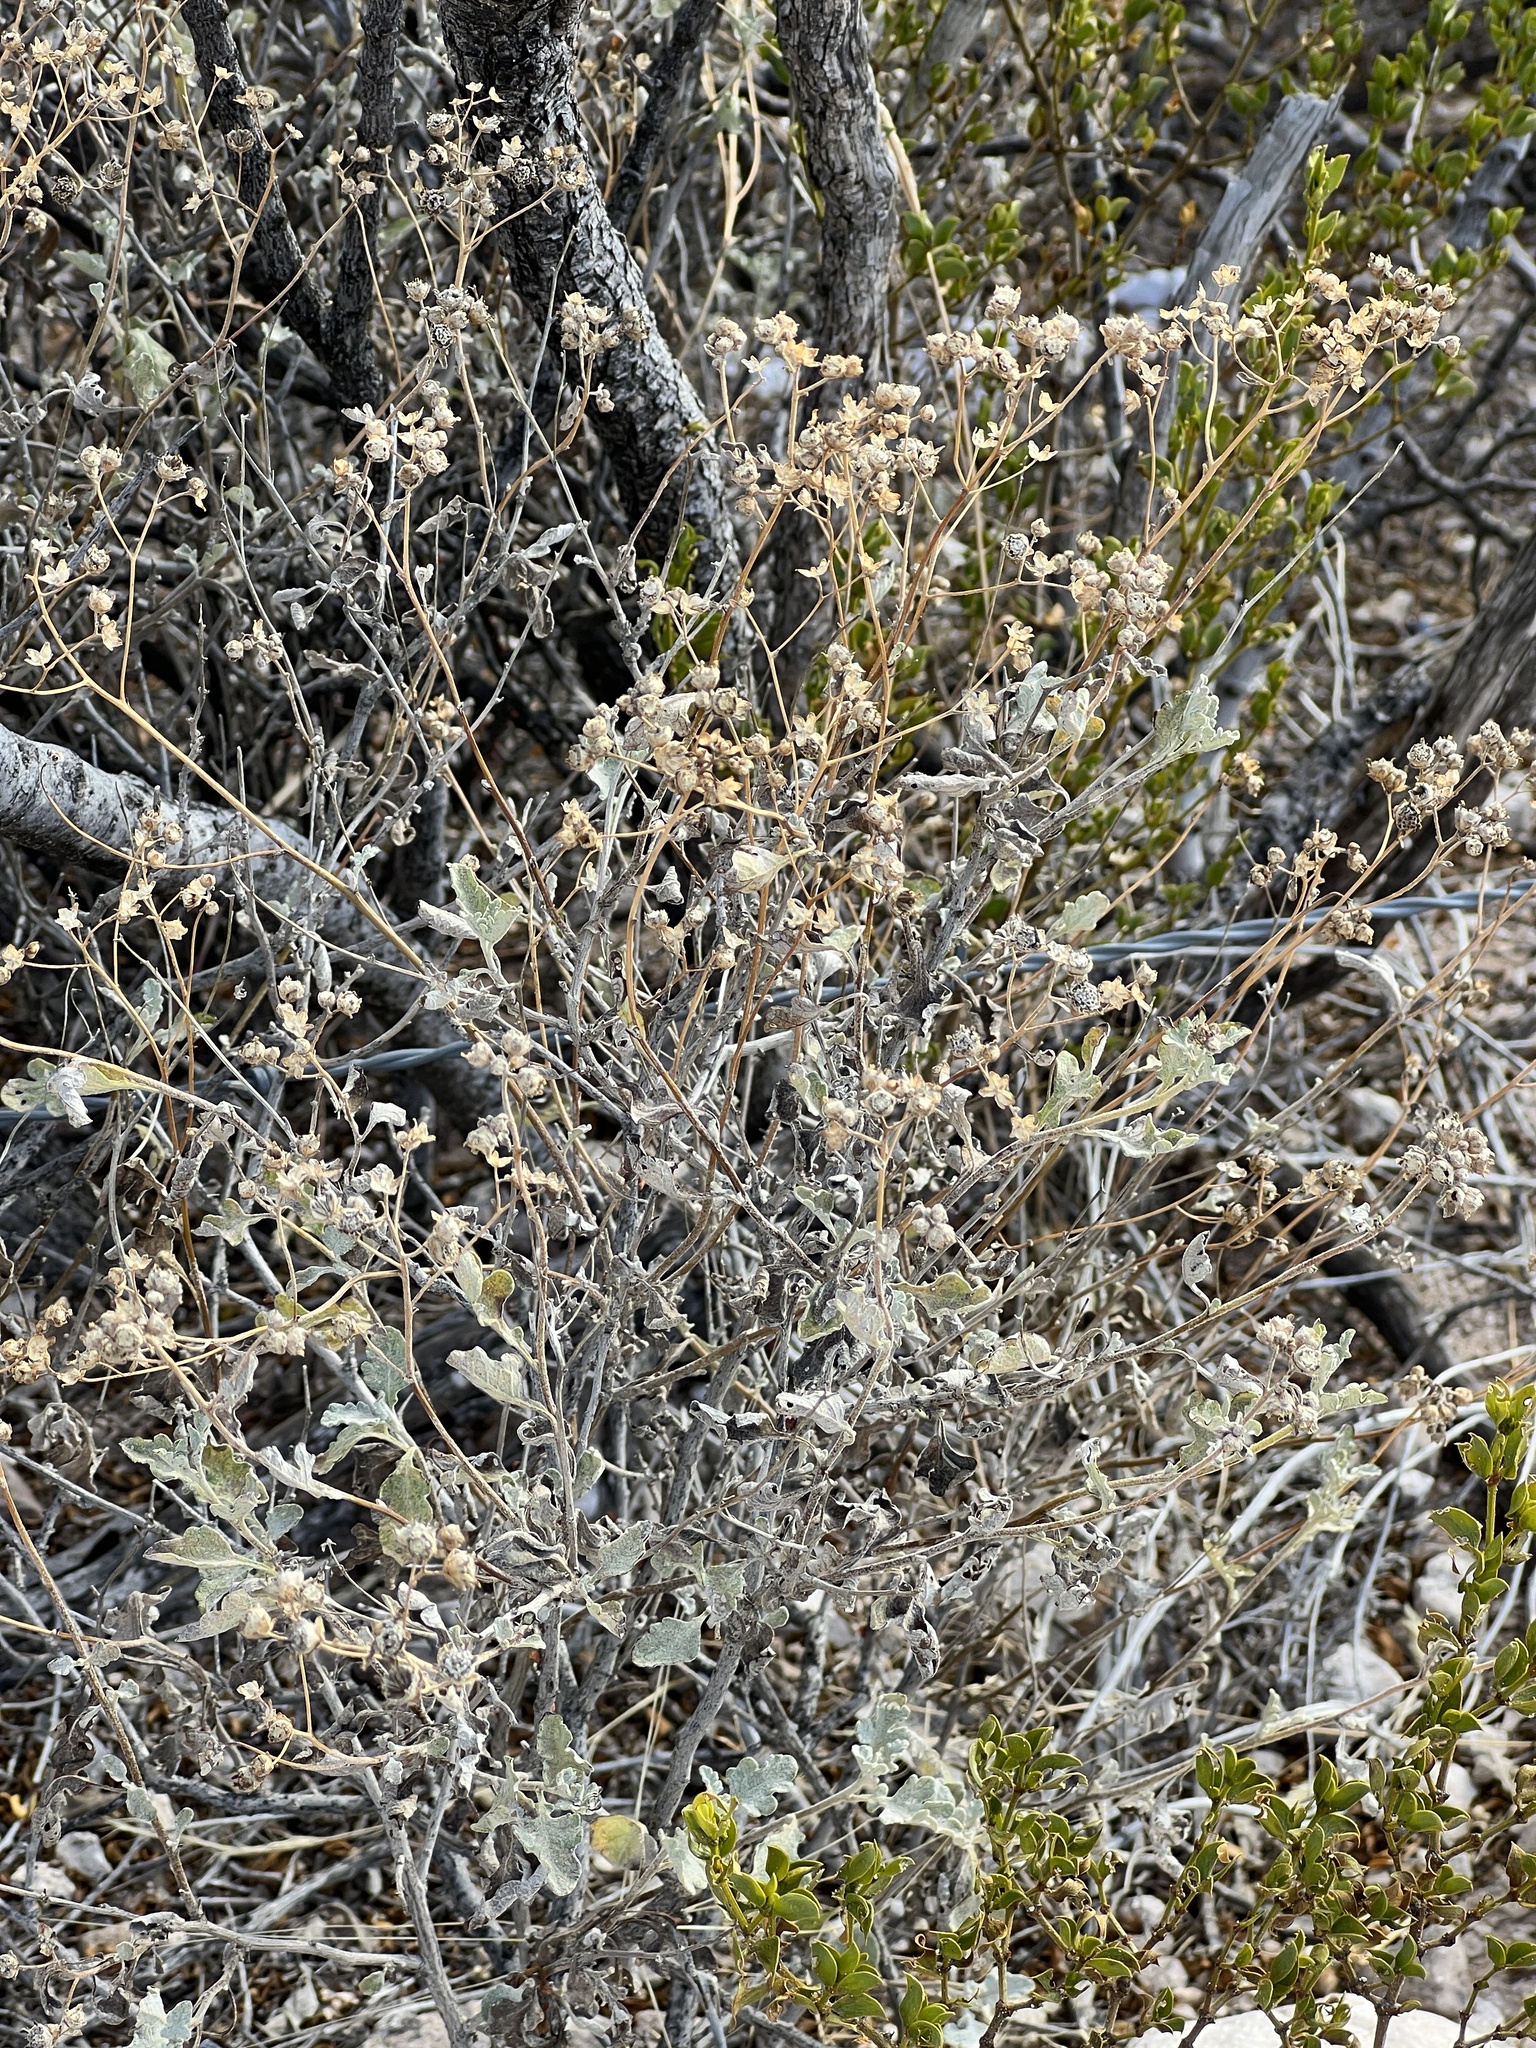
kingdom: Plantae
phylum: Tracheophyta
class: Magnoliopsida
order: Asterales
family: Asteraceae
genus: Parthenium
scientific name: Parthenium incanum
